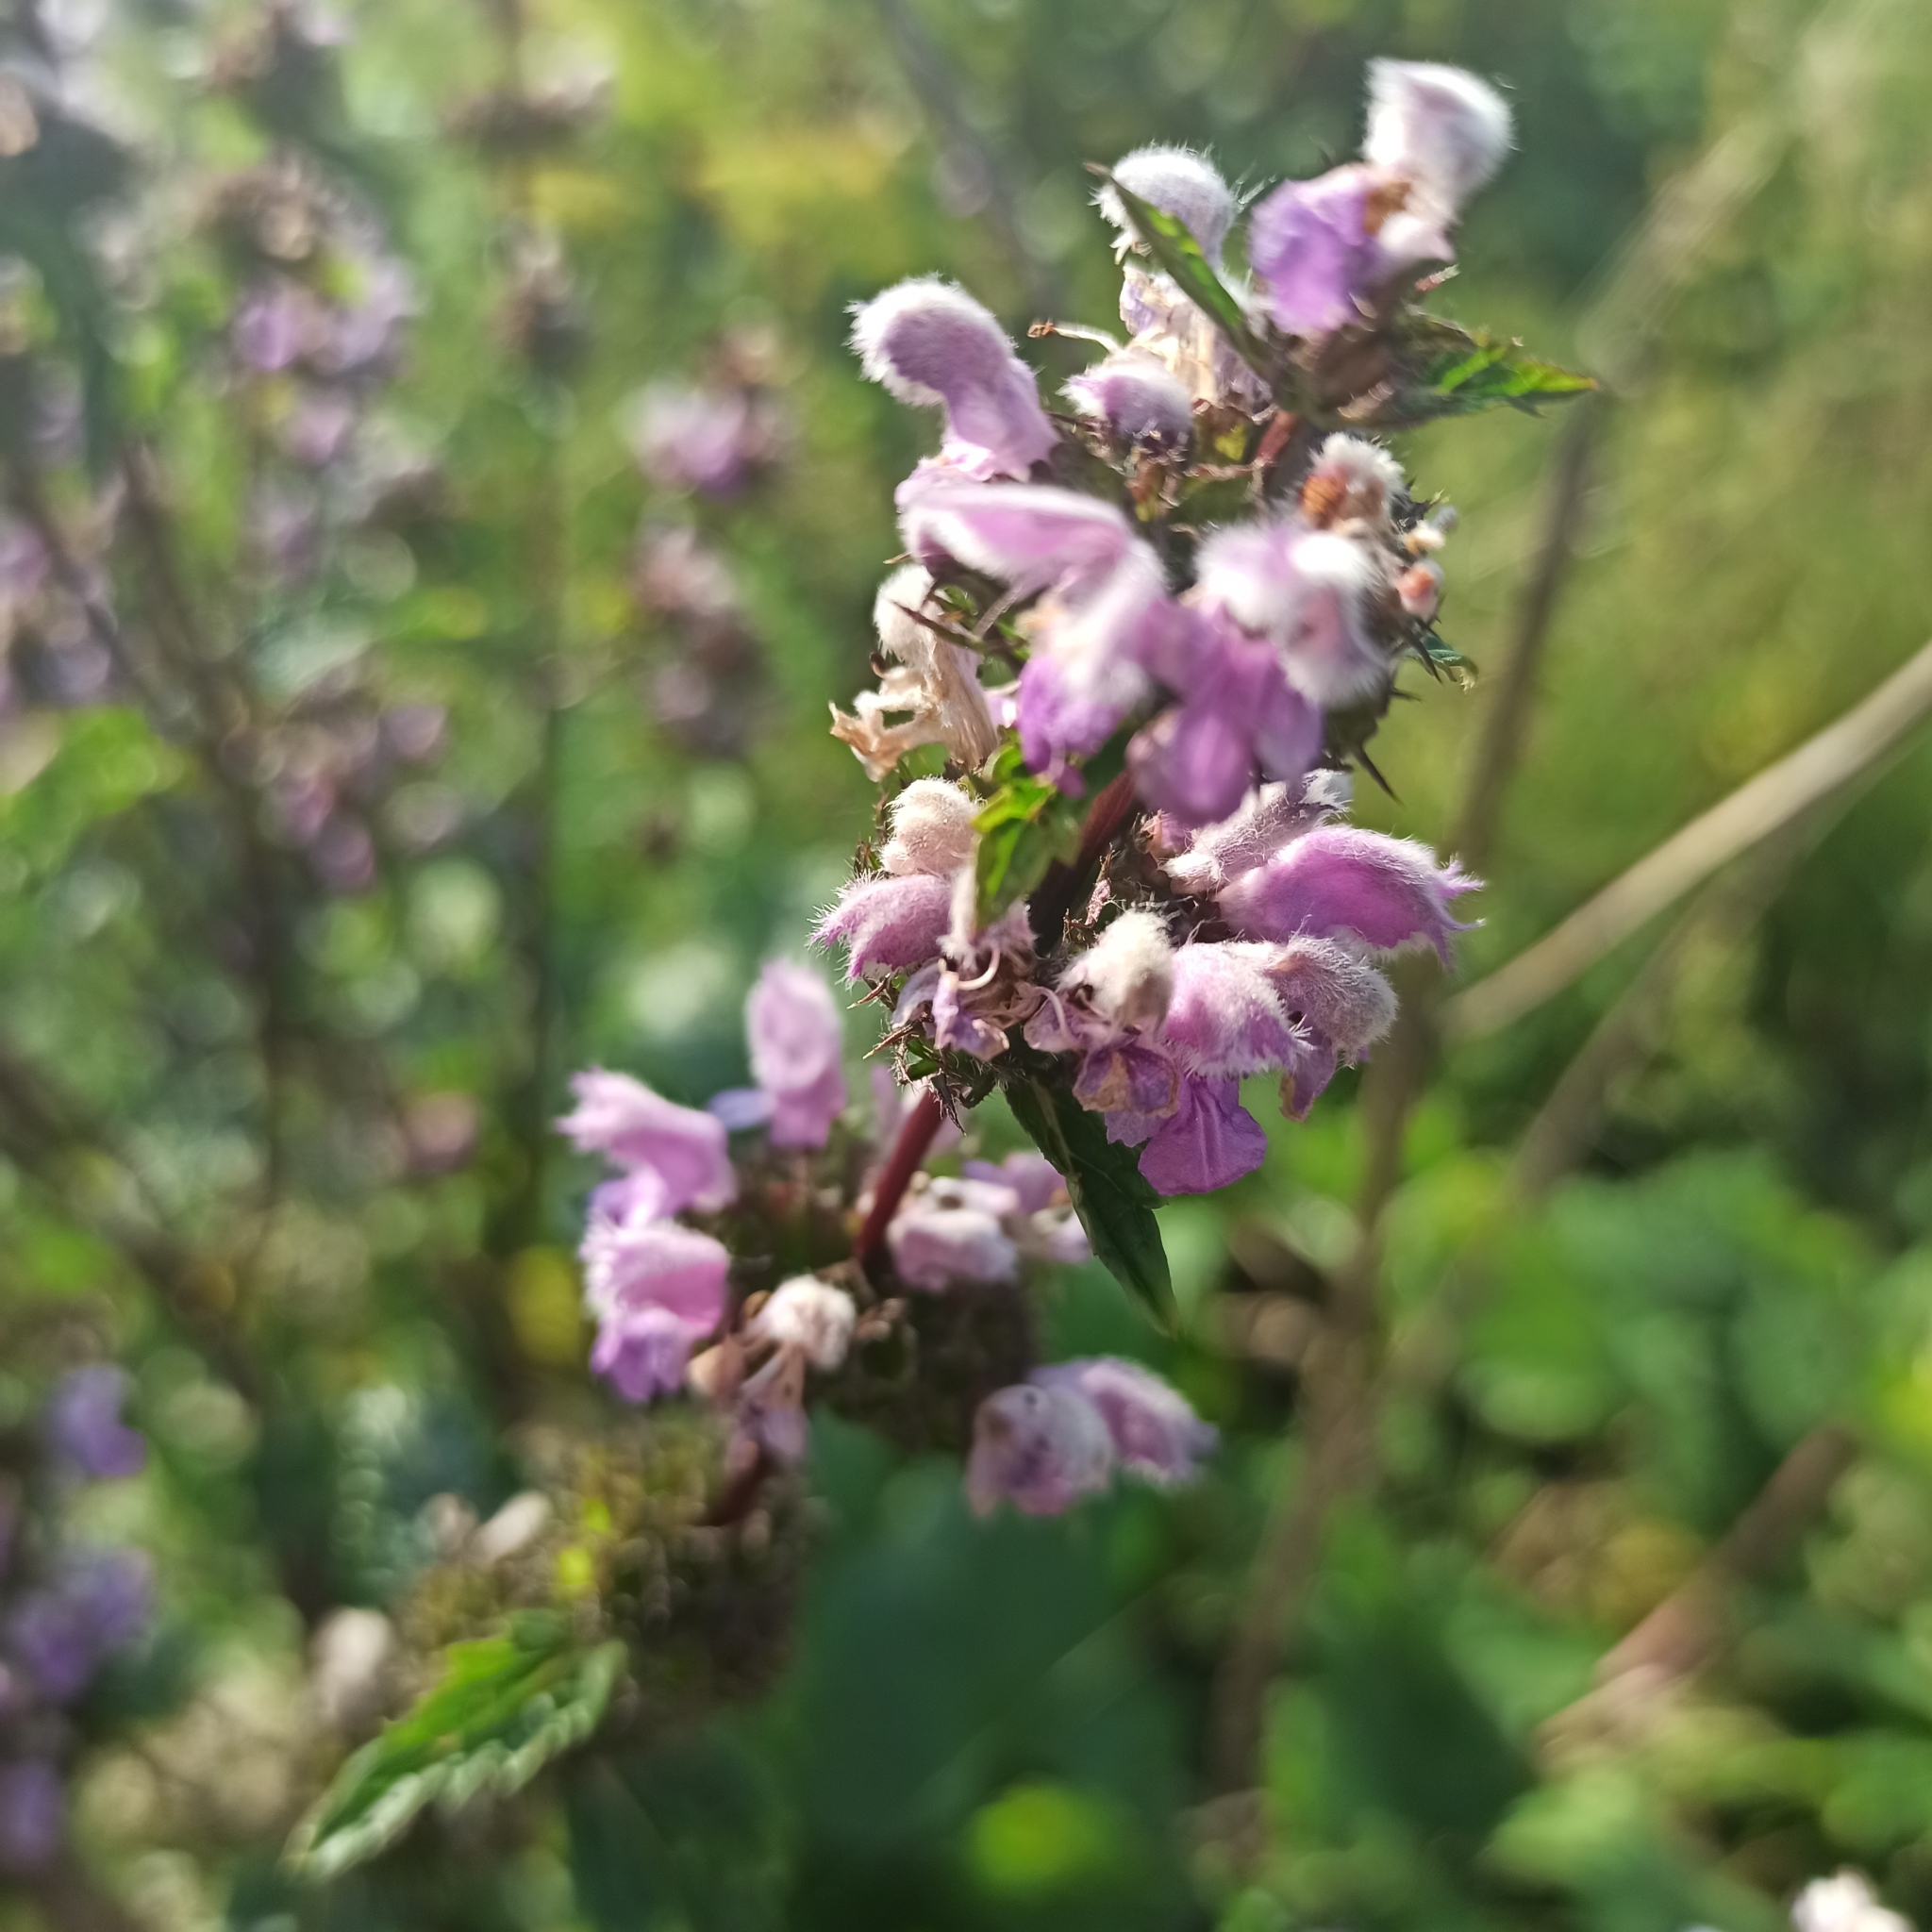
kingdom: Plantae
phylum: Tracheophyta
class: Magnoliopsida
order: Lamiales
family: Lamiaceae
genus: Phlomoides
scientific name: Phlomoides tuberosa
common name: Tuberous jerusalem sage
